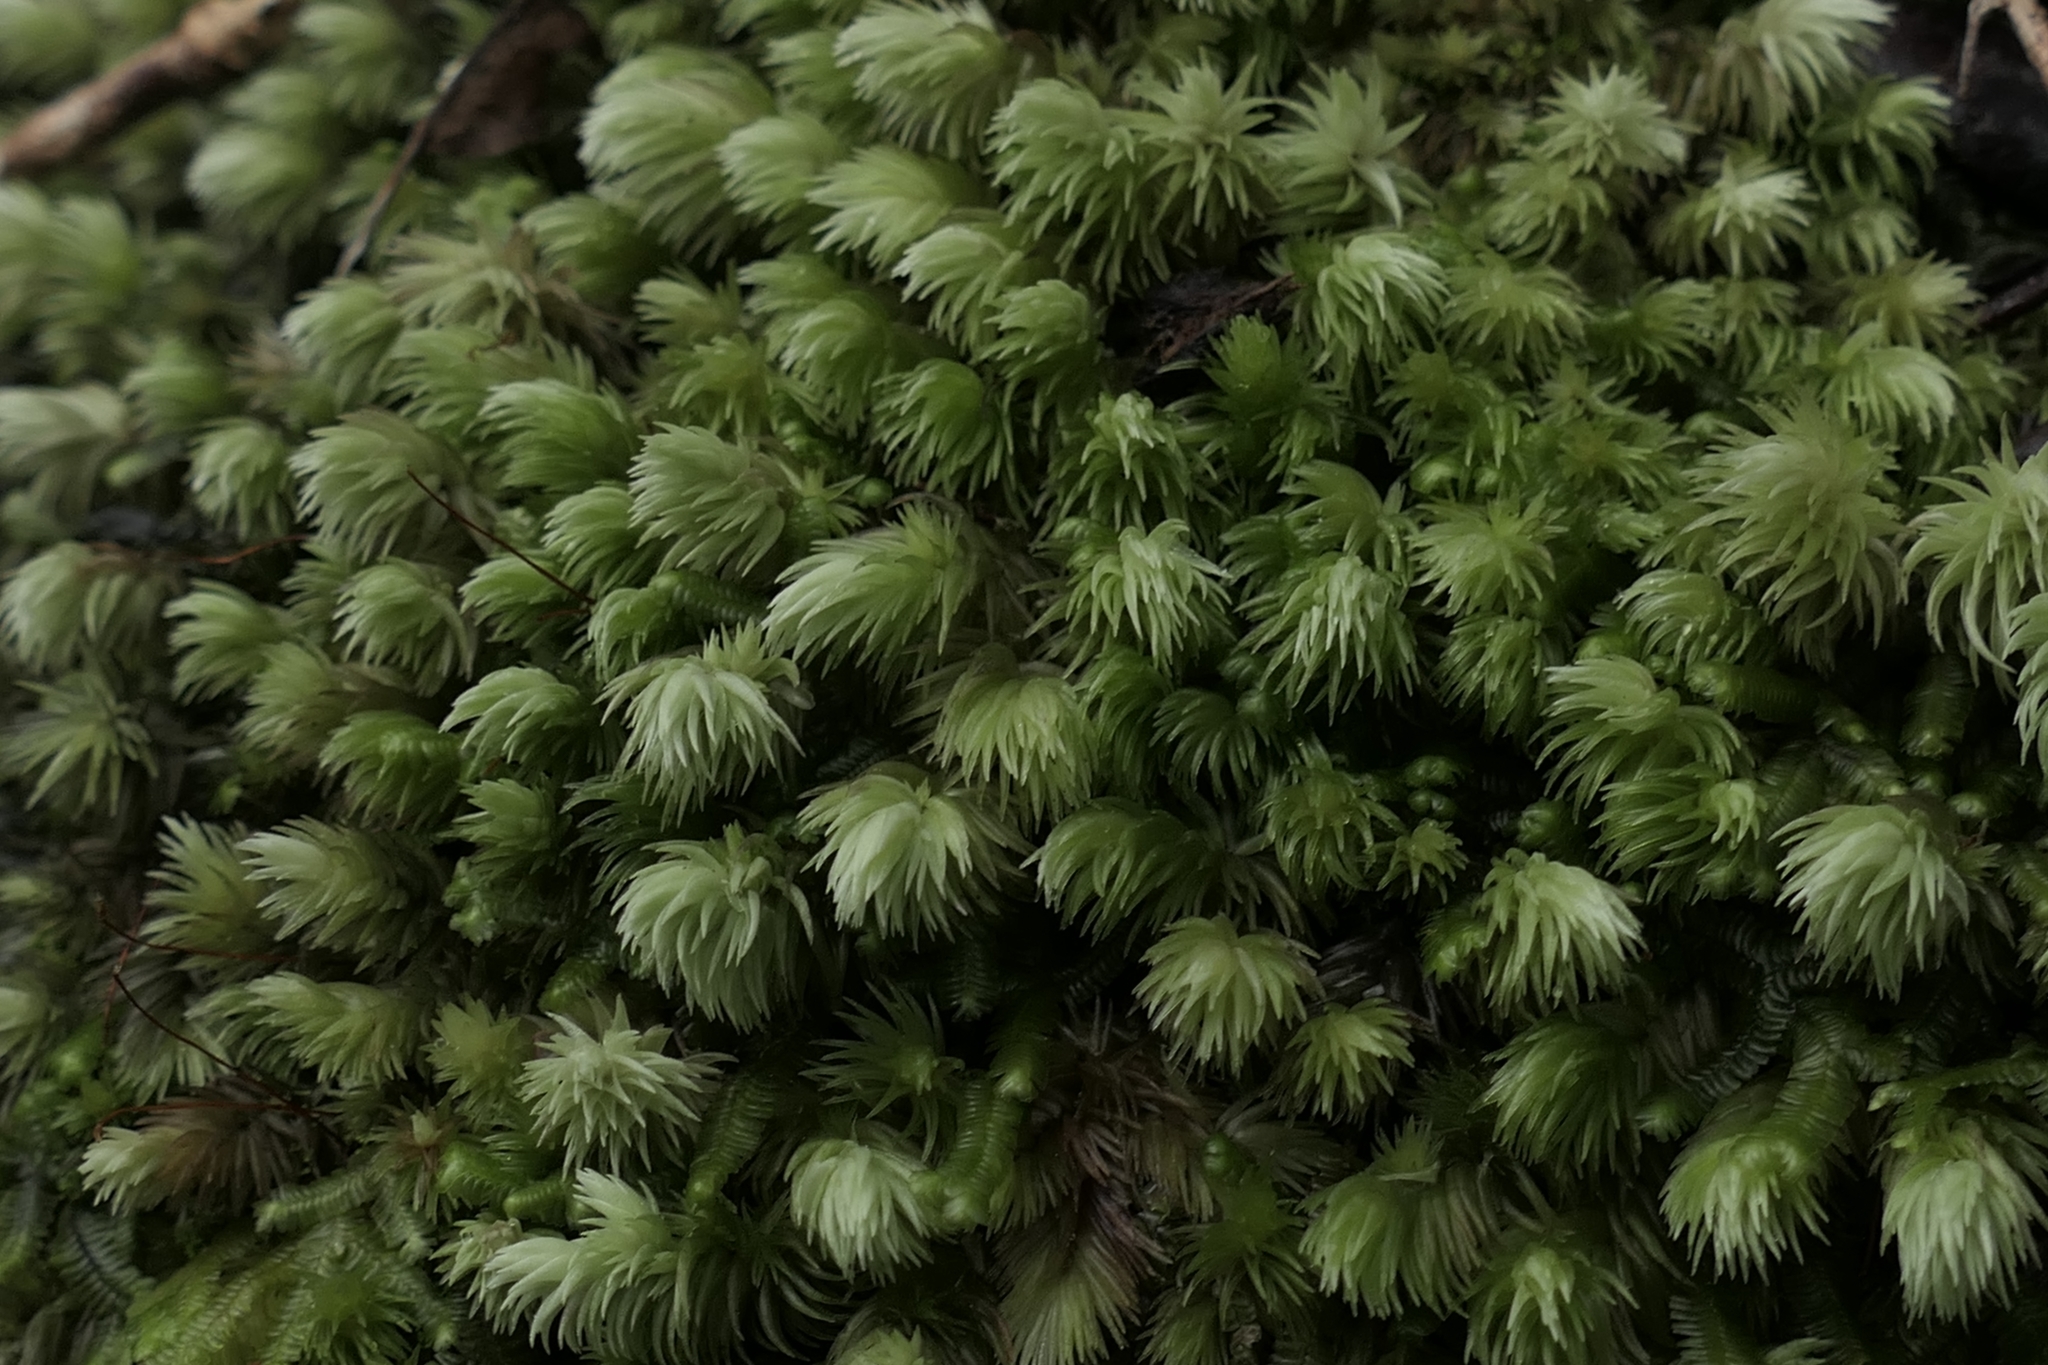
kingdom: Plantae
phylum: Bryophyta
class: Bryopsida
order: Dicranales
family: Leucobryaceae
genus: Leucobryum
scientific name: Leucobryum javense
